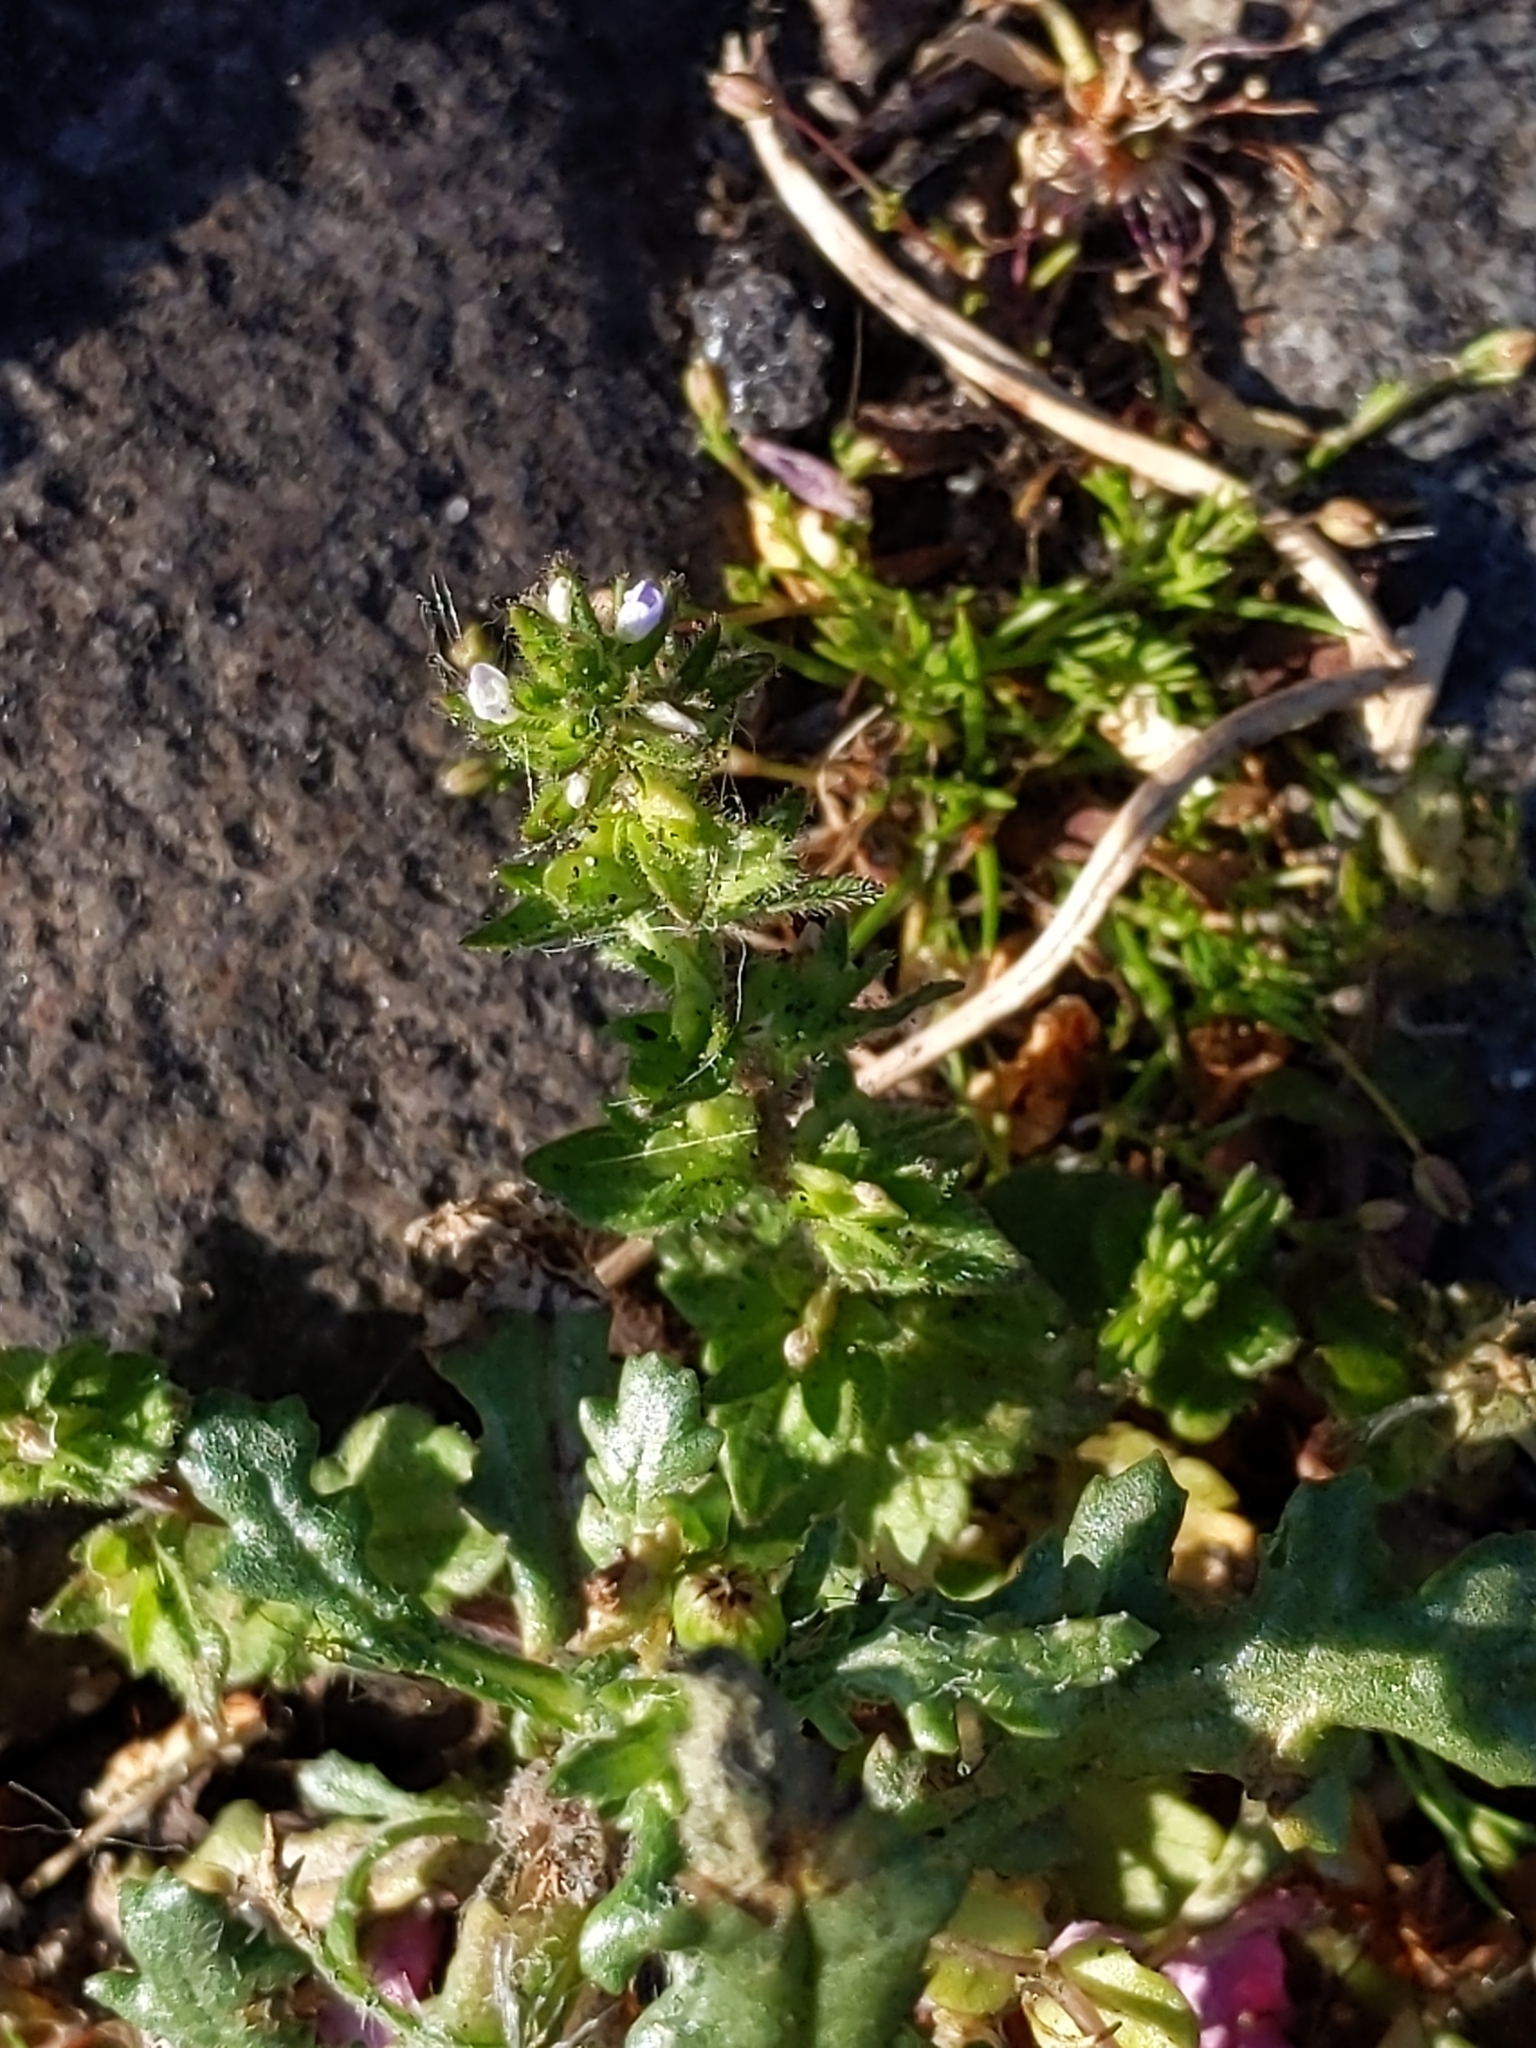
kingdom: Plantae
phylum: Tracheophyta
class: Magnoliopsida
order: Lamiales
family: Plantaginaceae
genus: Veronica
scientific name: Veronica arvensis
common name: Corn speedwell
